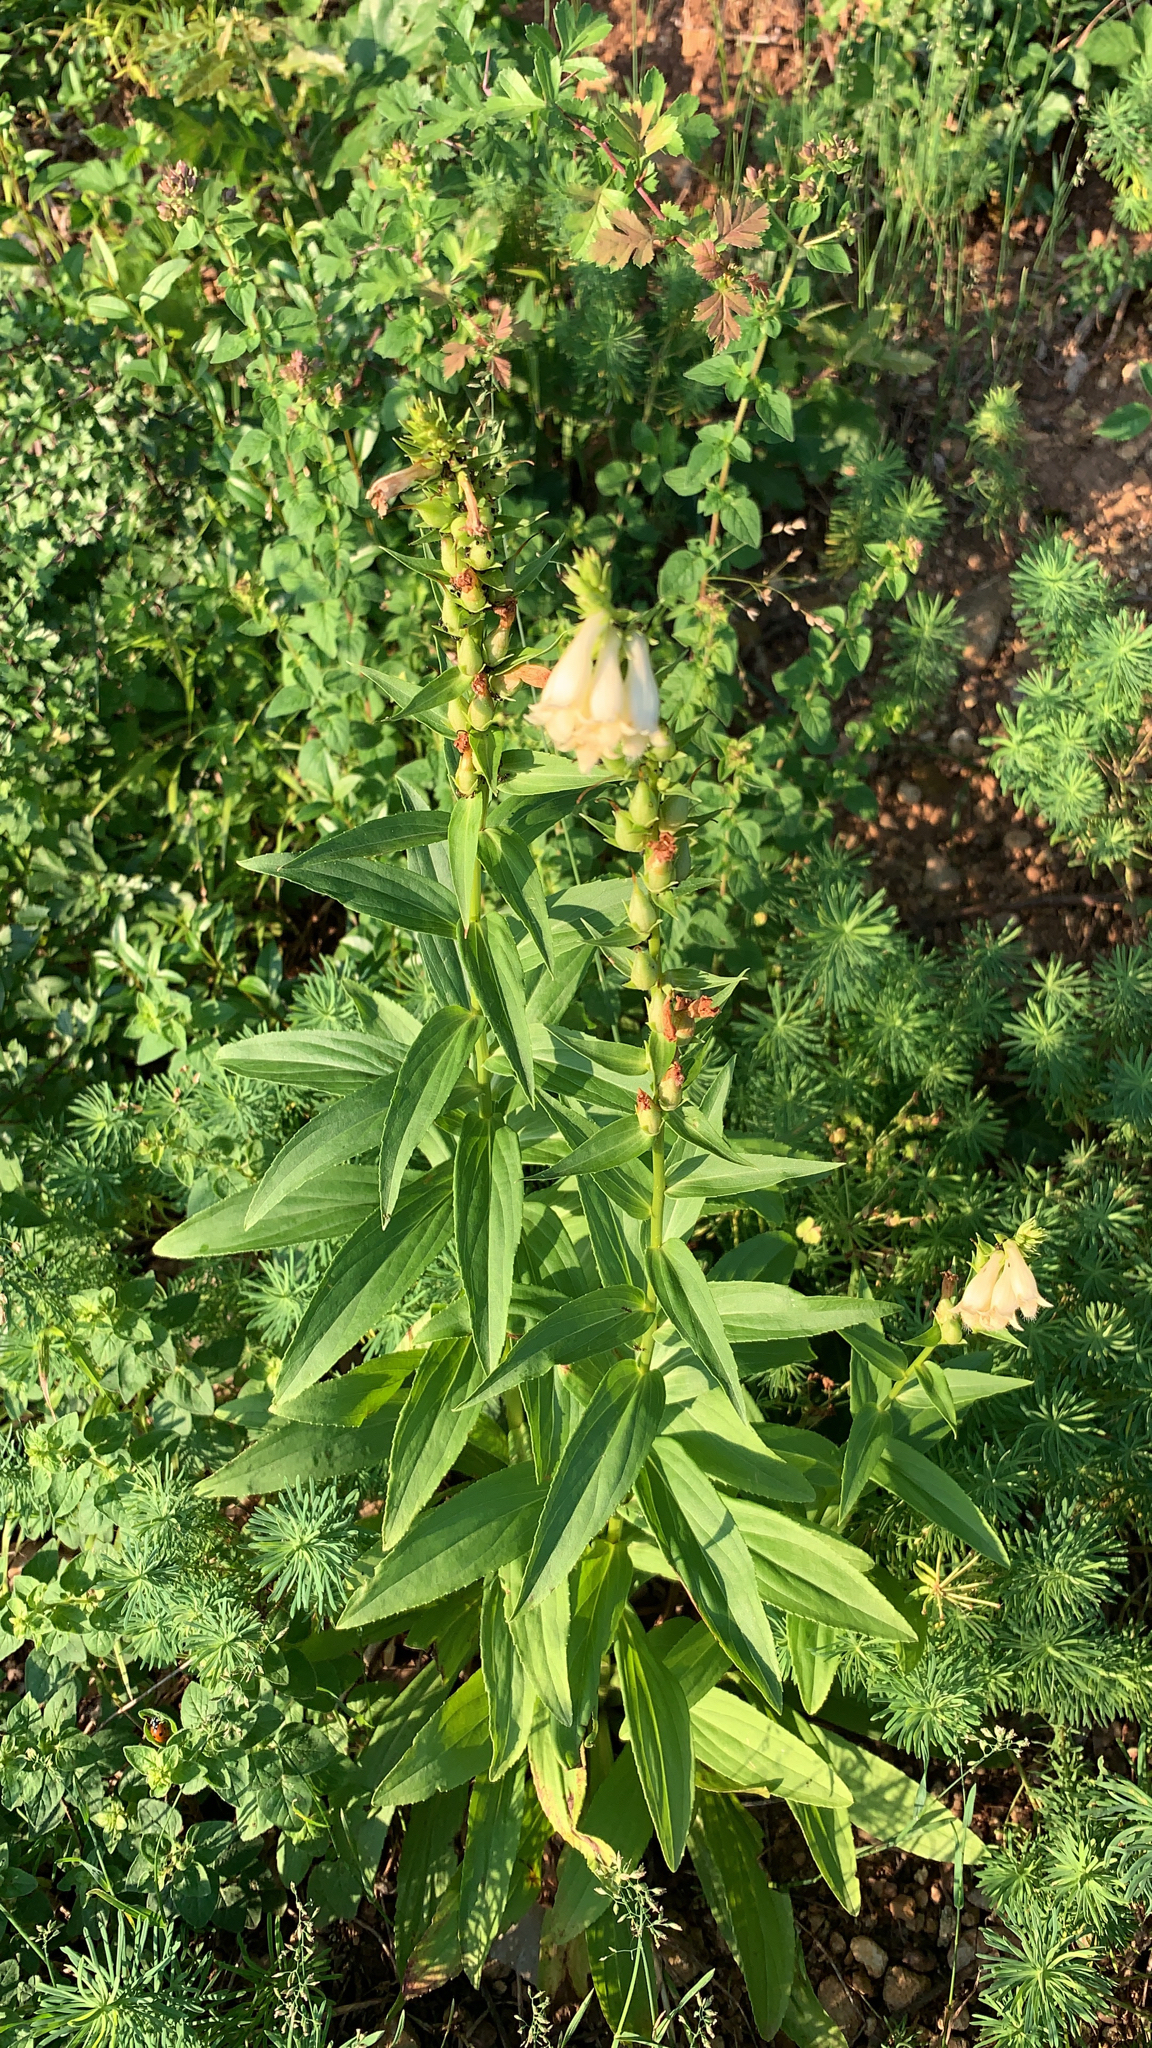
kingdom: Plantae
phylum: Tracheophyta
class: Magnoliopsida
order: Lamiales
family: Plantaginaceae
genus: Digitalis
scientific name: Digitalis lutea
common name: Straw foxglove
